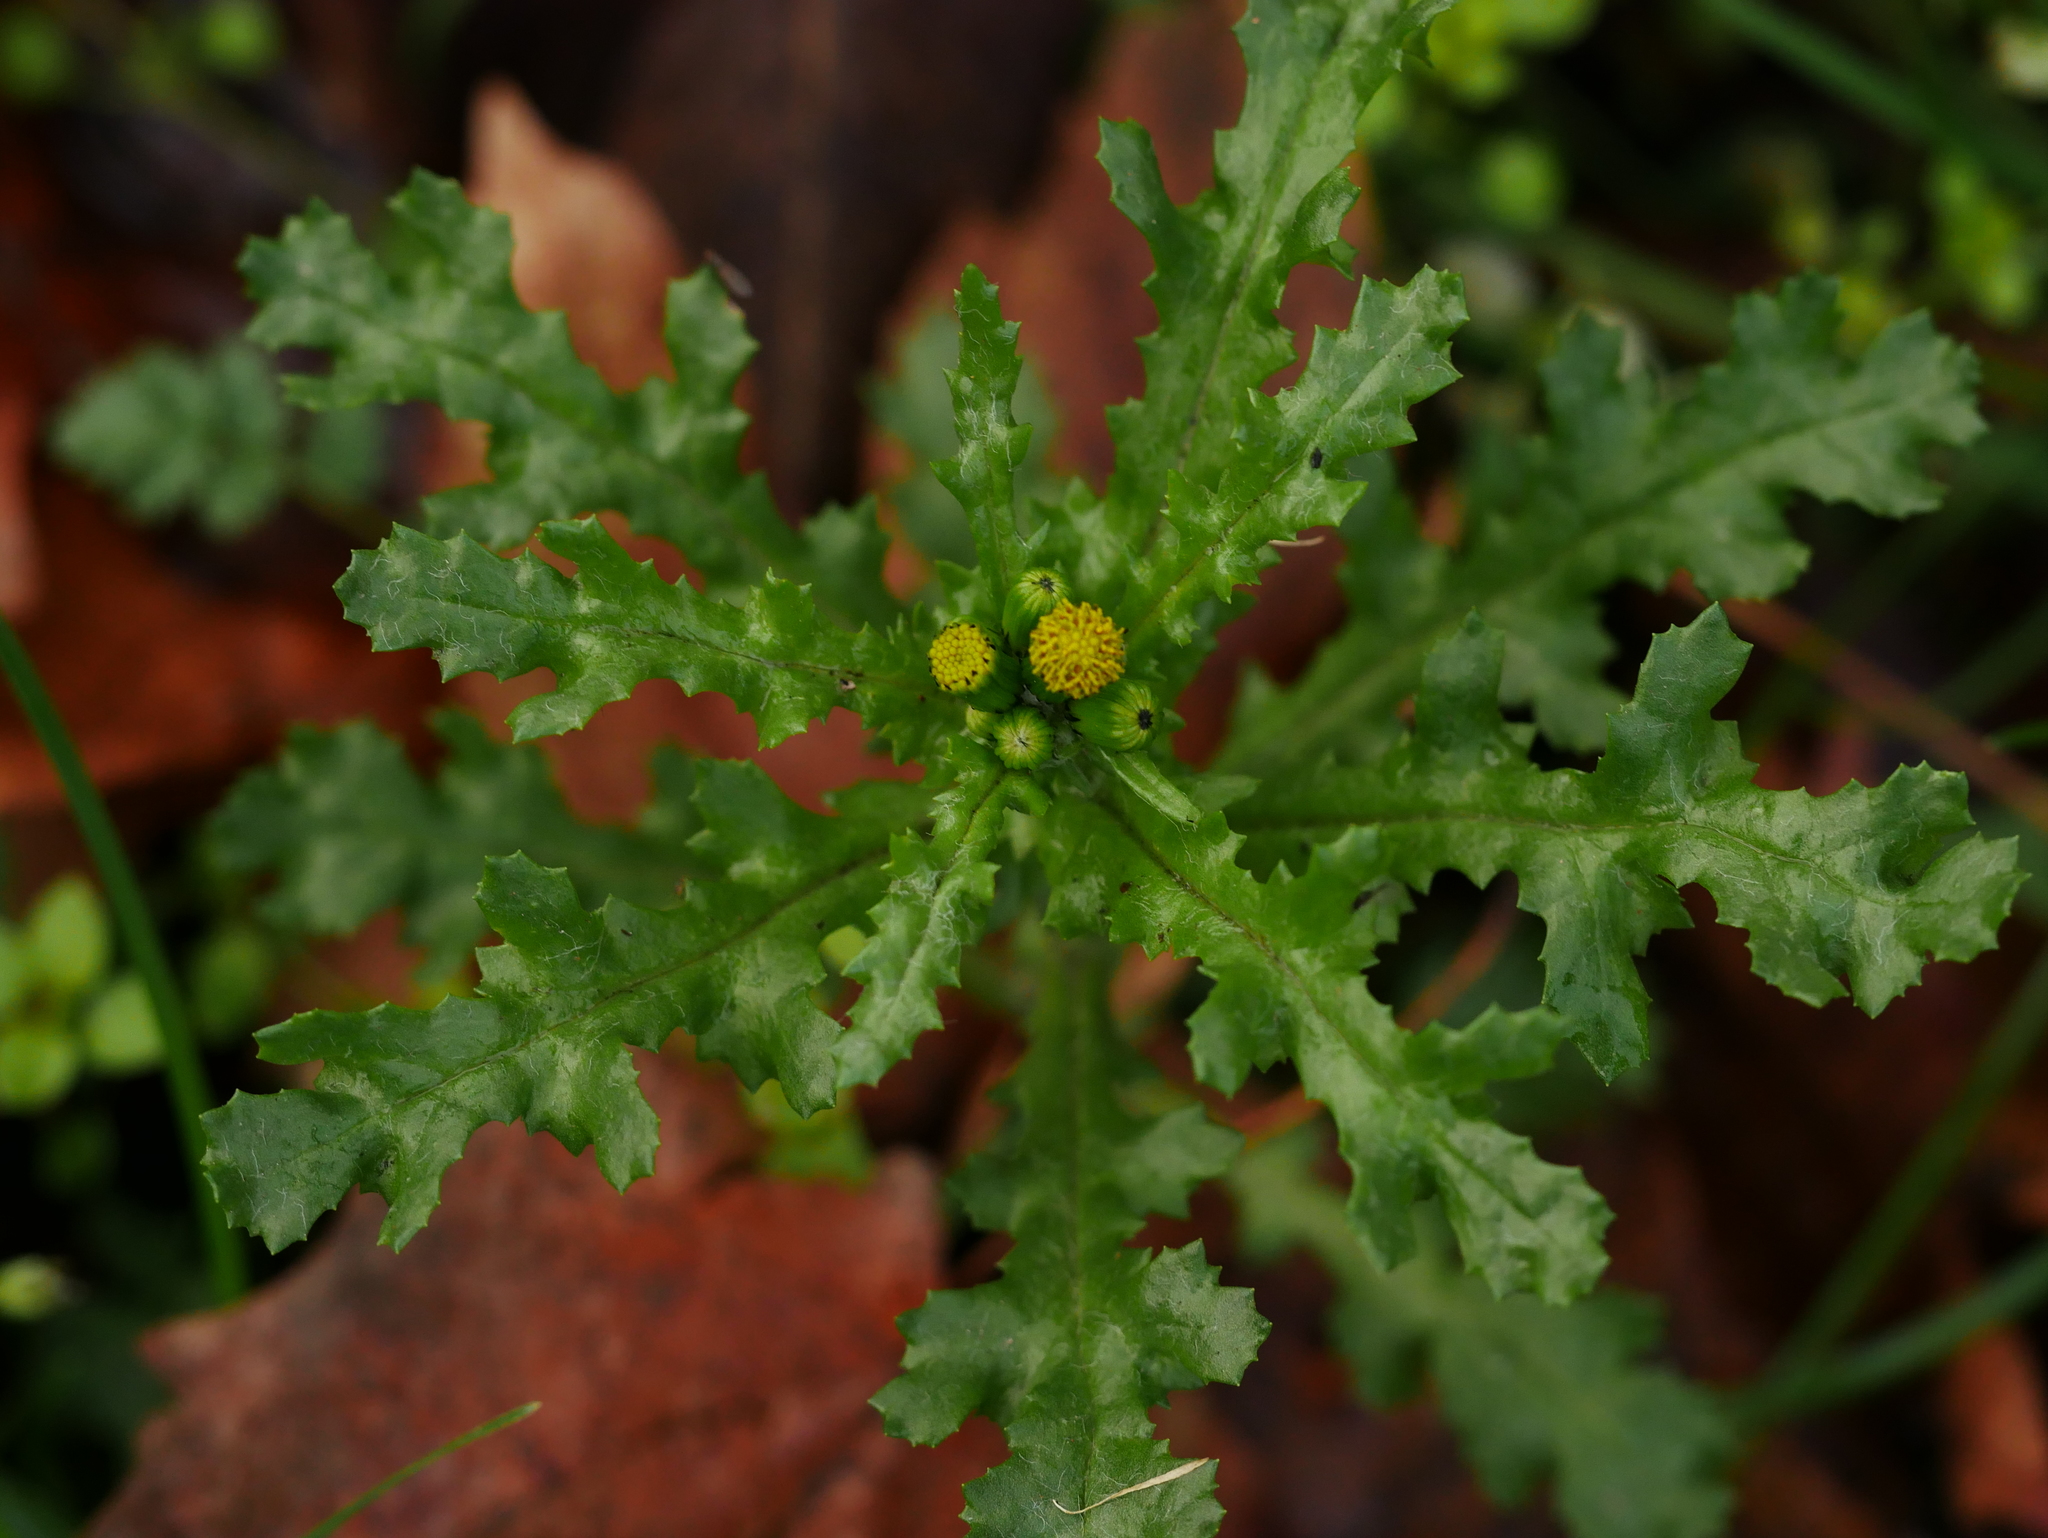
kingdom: Plantae
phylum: Tracheophyta
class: Magnoliopsida
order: Asterales
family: Asteraceae
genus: Senecio
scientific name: Senecio vulgaris
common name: Old-man-in-the-spring
